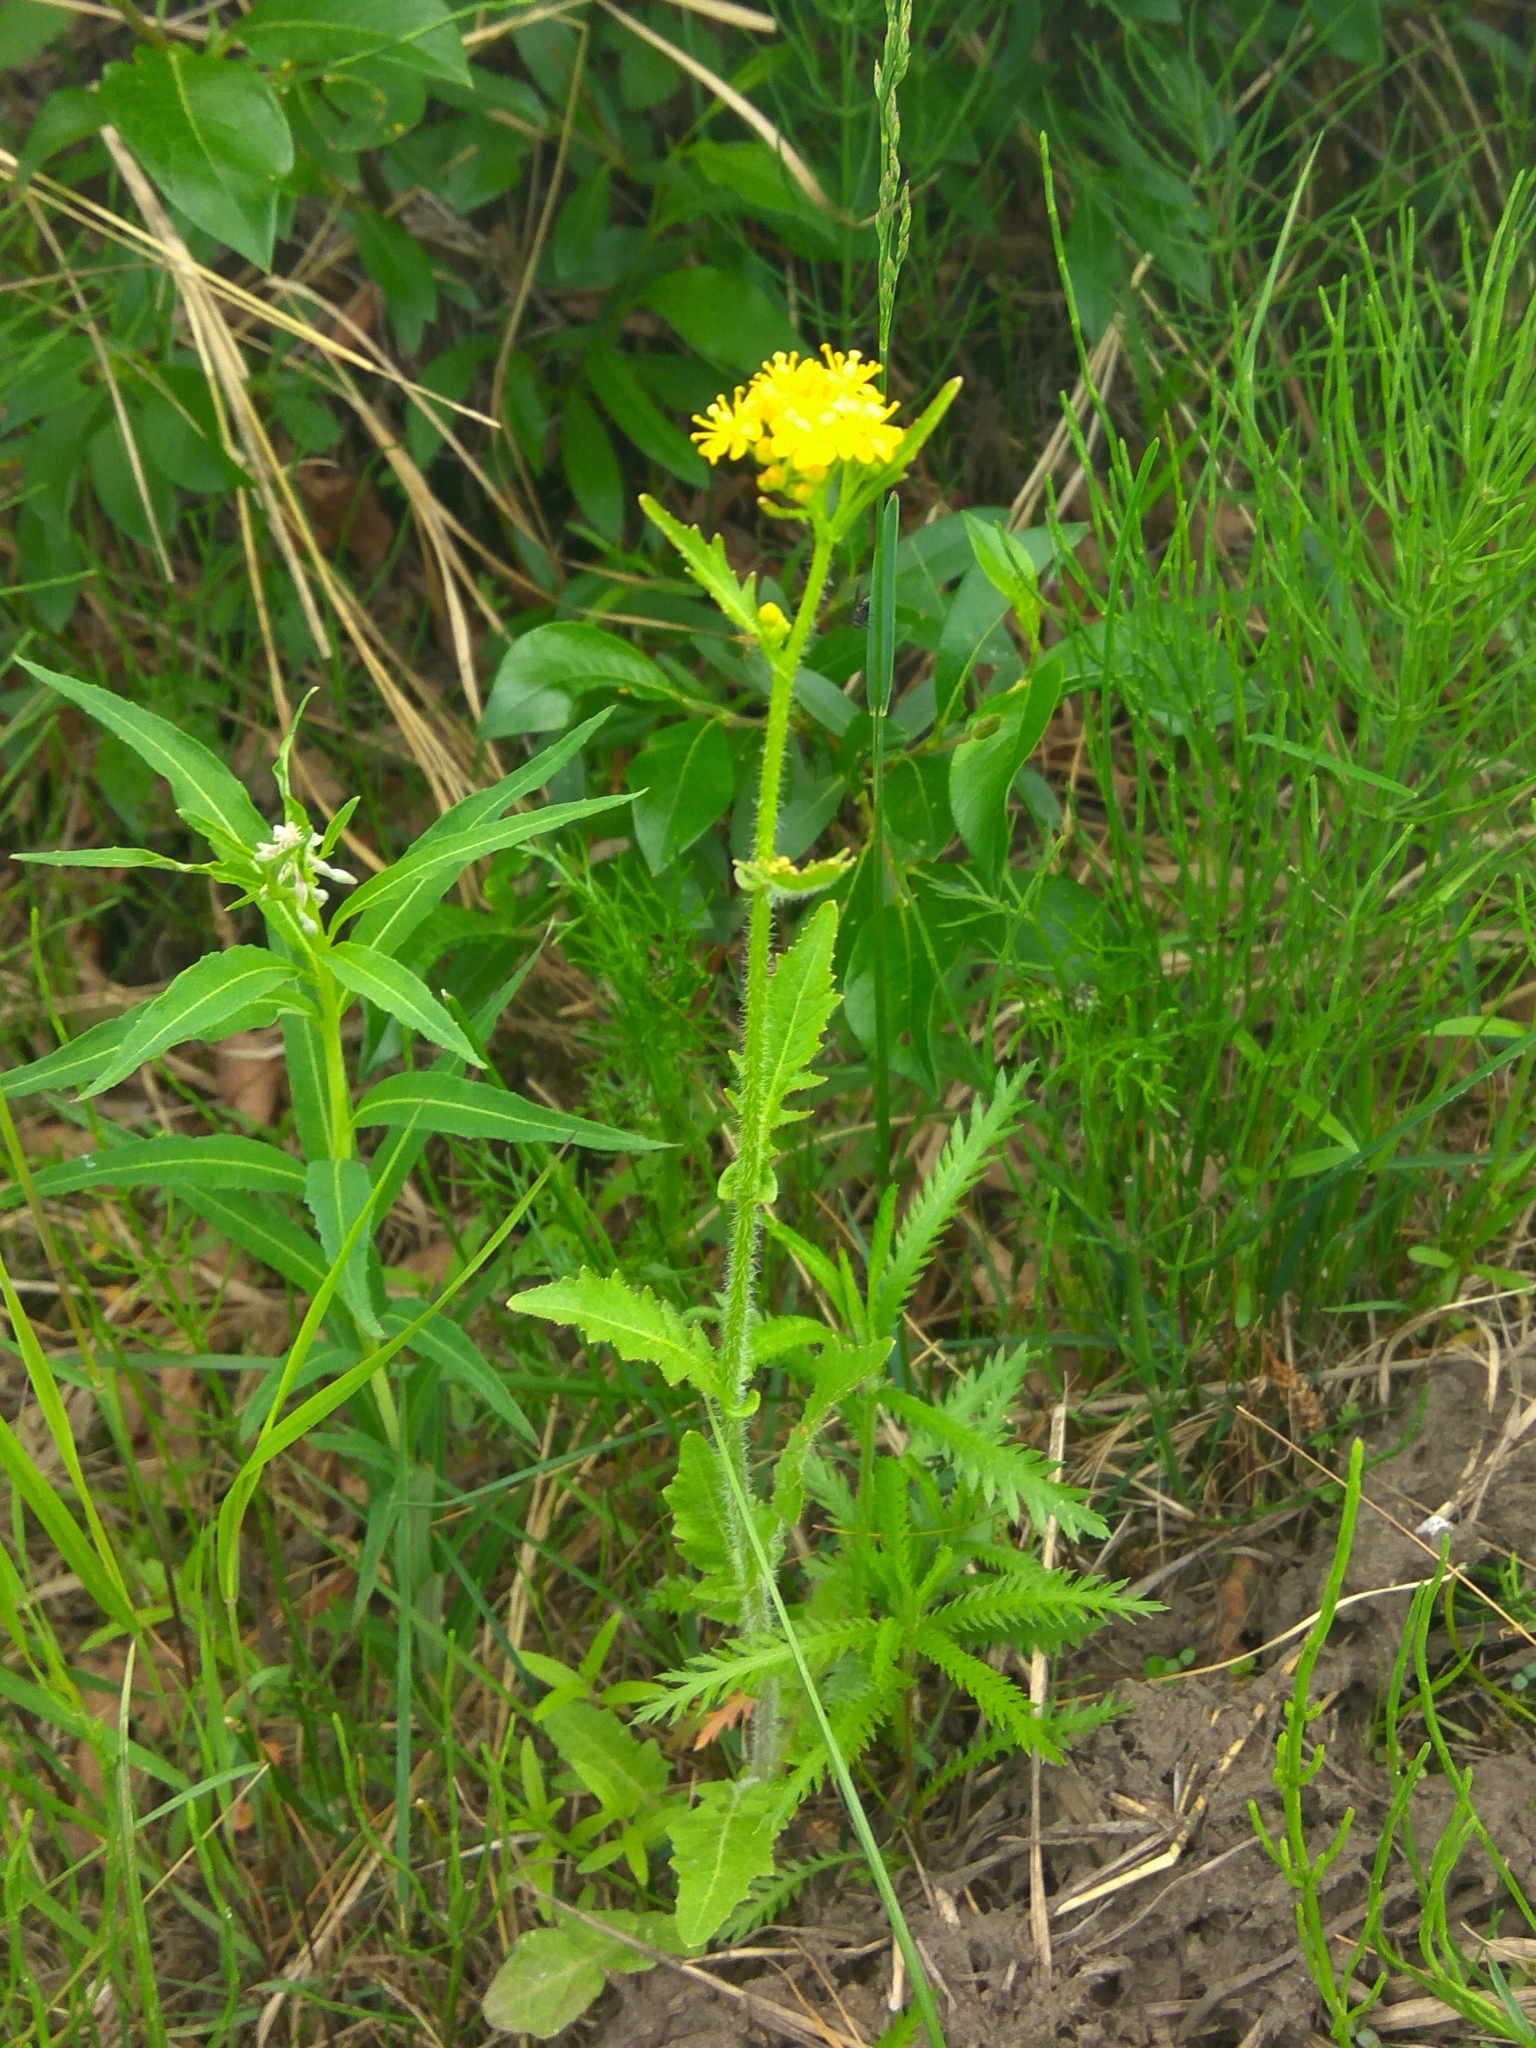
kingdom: Plantae
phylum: Tracheophyta
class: Magnoliopsida
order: Asterales
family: Asteraceae
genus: Tephroseris
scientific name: Tephroseris palustris
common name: Marsh fleawort
